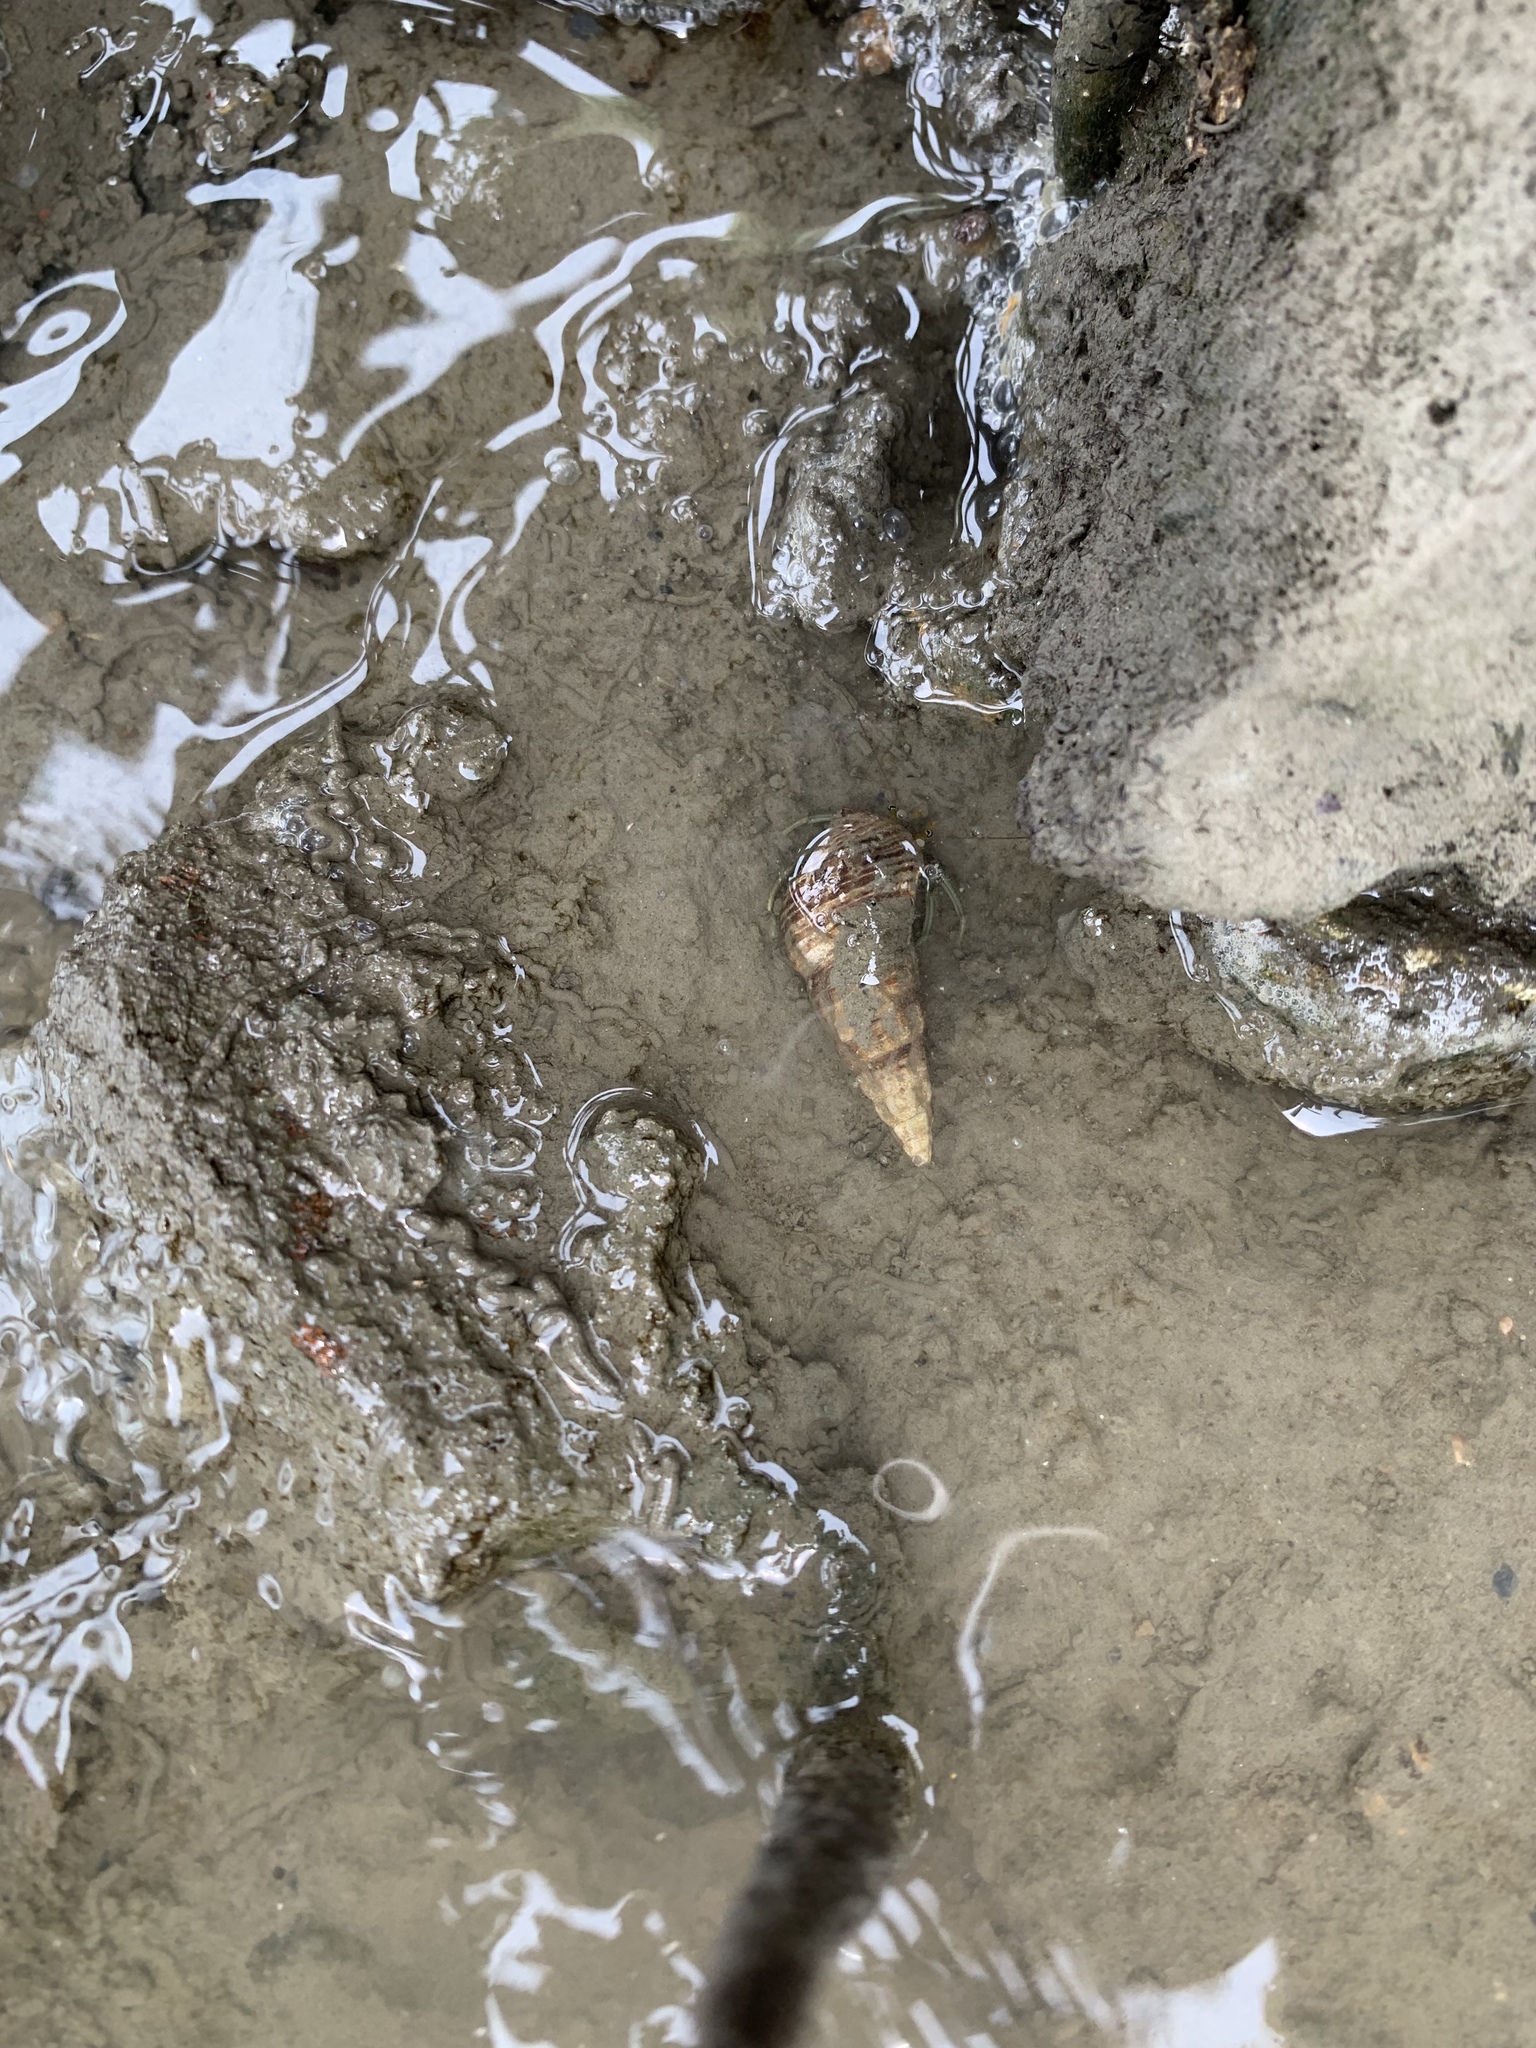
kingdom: Animalia
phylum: Arthropoda
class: Malacostraca
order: Decapoda
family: Diogenidae
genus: Clibanarius
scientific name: Clibanarius longitarsus
